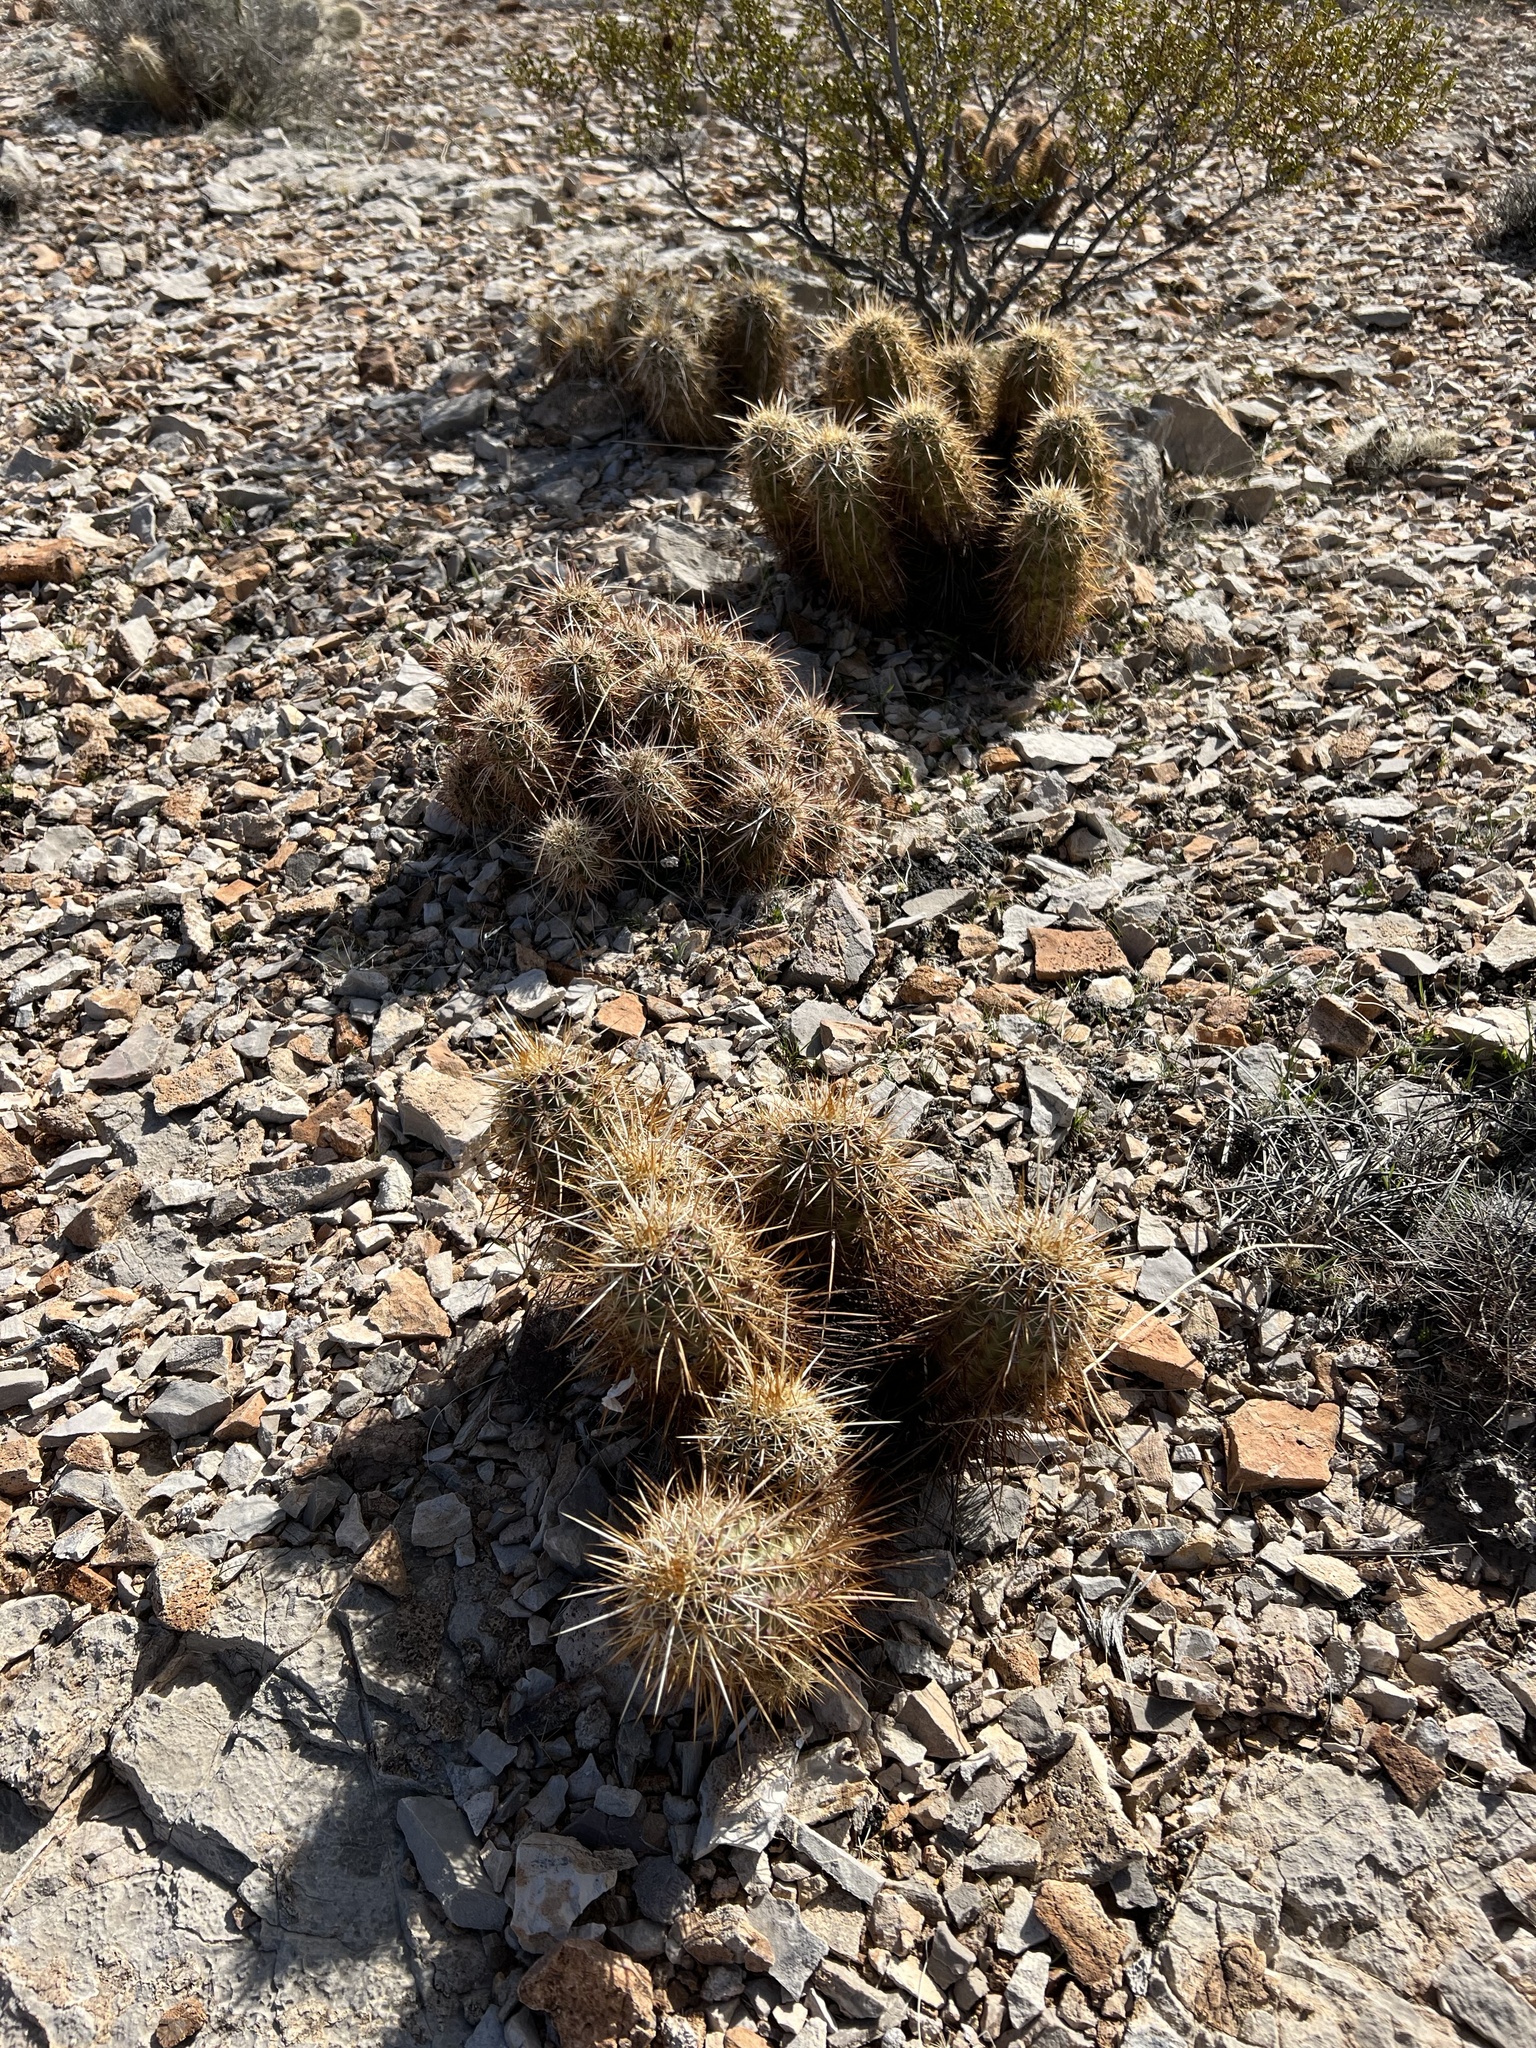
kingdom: Plantae
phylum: Tracheophyta
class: Magnoliopsida
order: Caryophyllales
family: Cactaceae
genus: Echinocereus
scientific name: Echinocereus engelmannii
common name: Engelmann's hedgehog cactus
